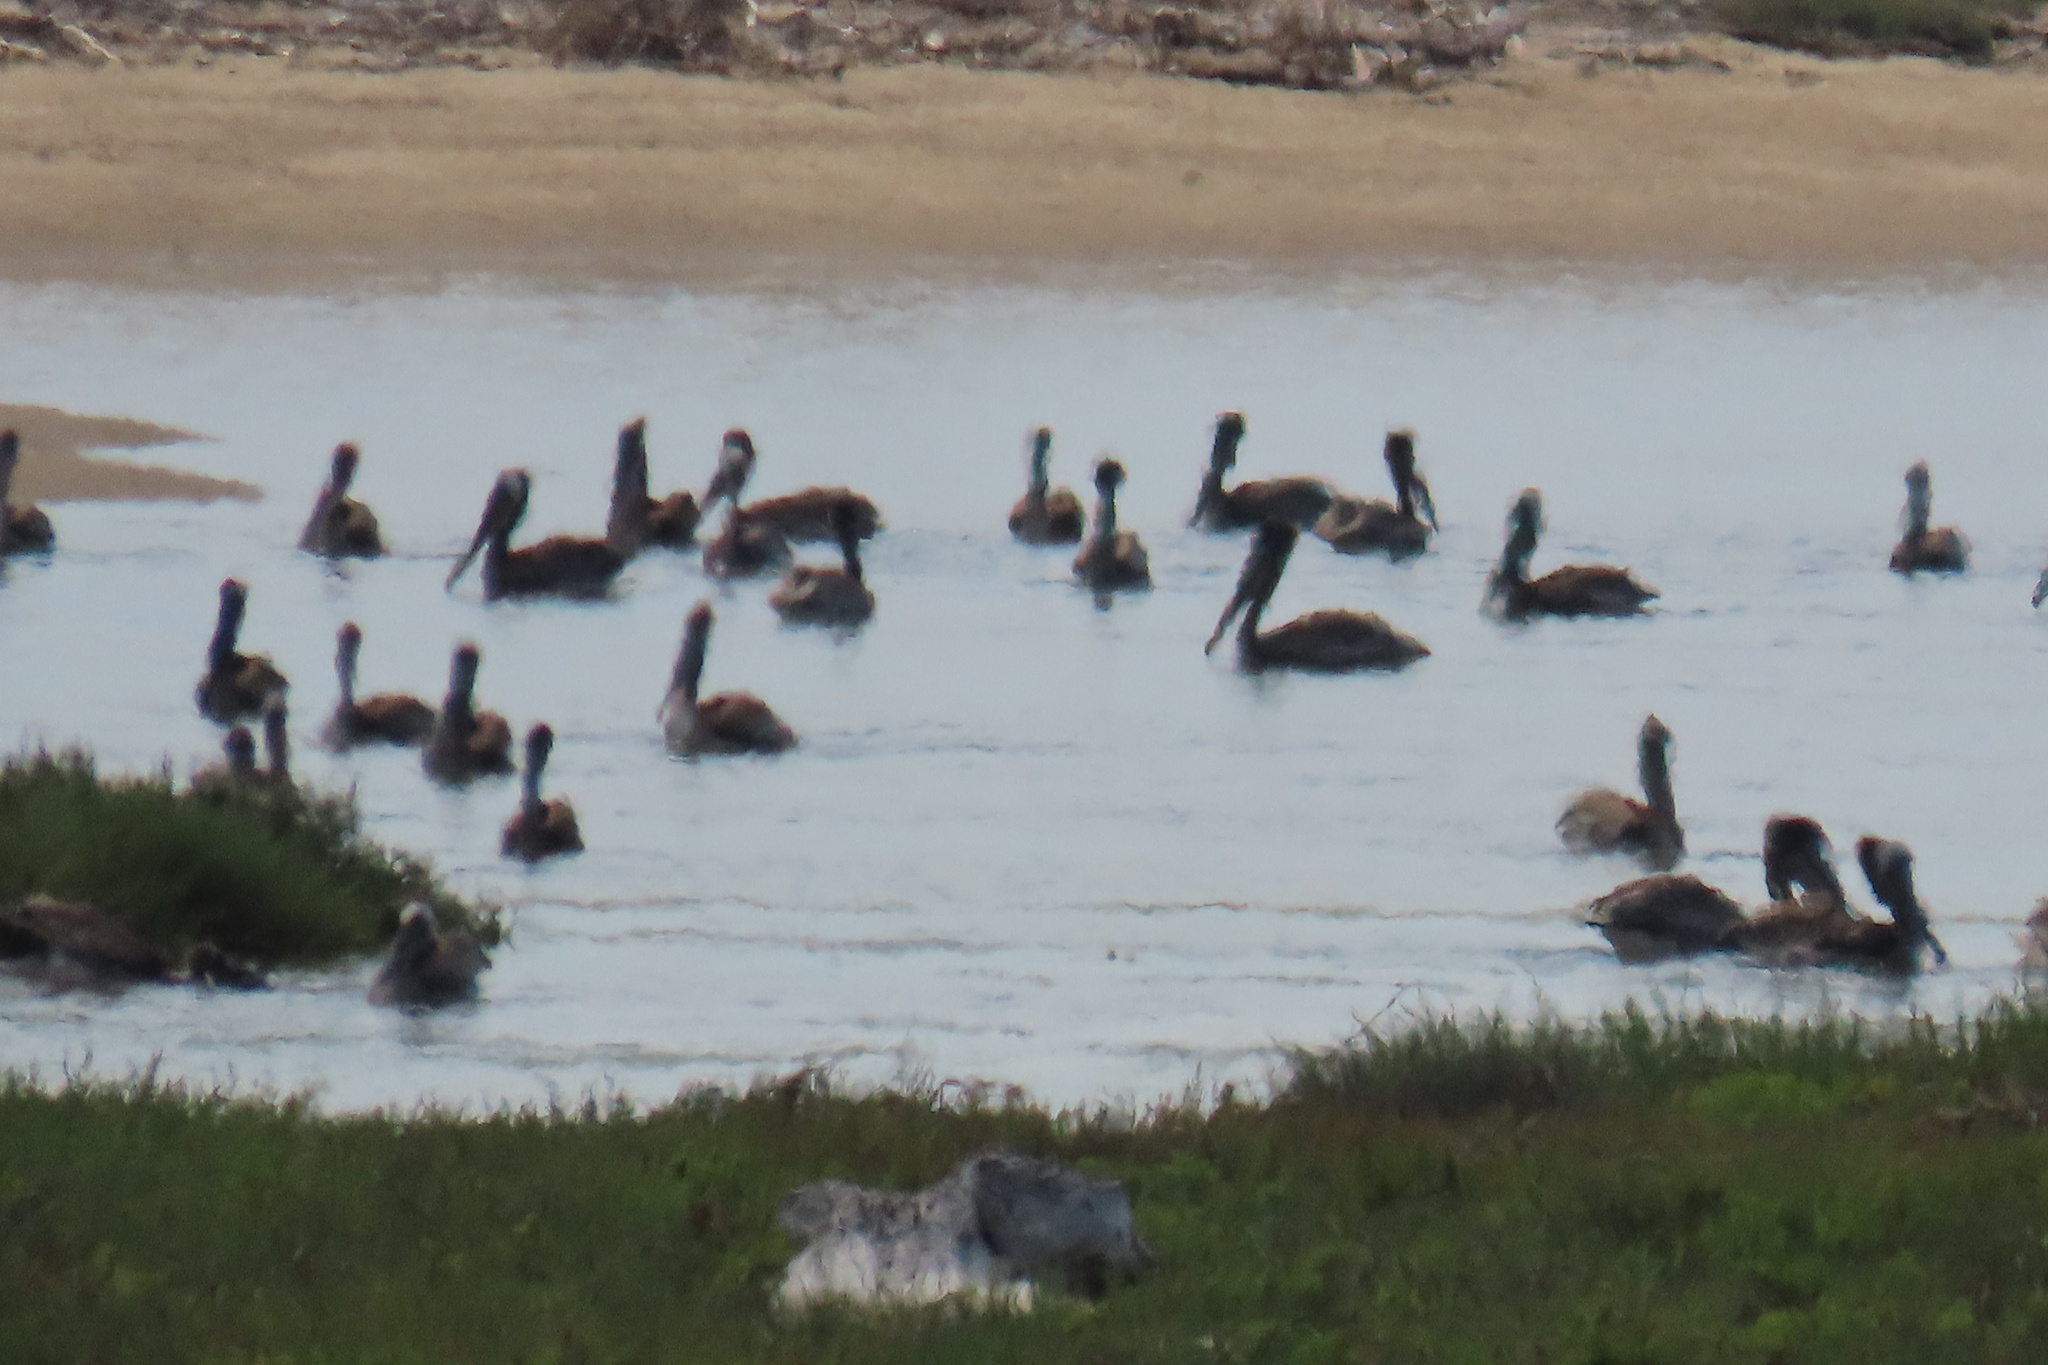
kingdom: Animalia
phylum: Chordata
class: Aves
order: Pelecaniformes
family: Pelecanidae
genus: Pelecanus
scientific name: Pelecanus occidentalis
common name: Brown pelican
